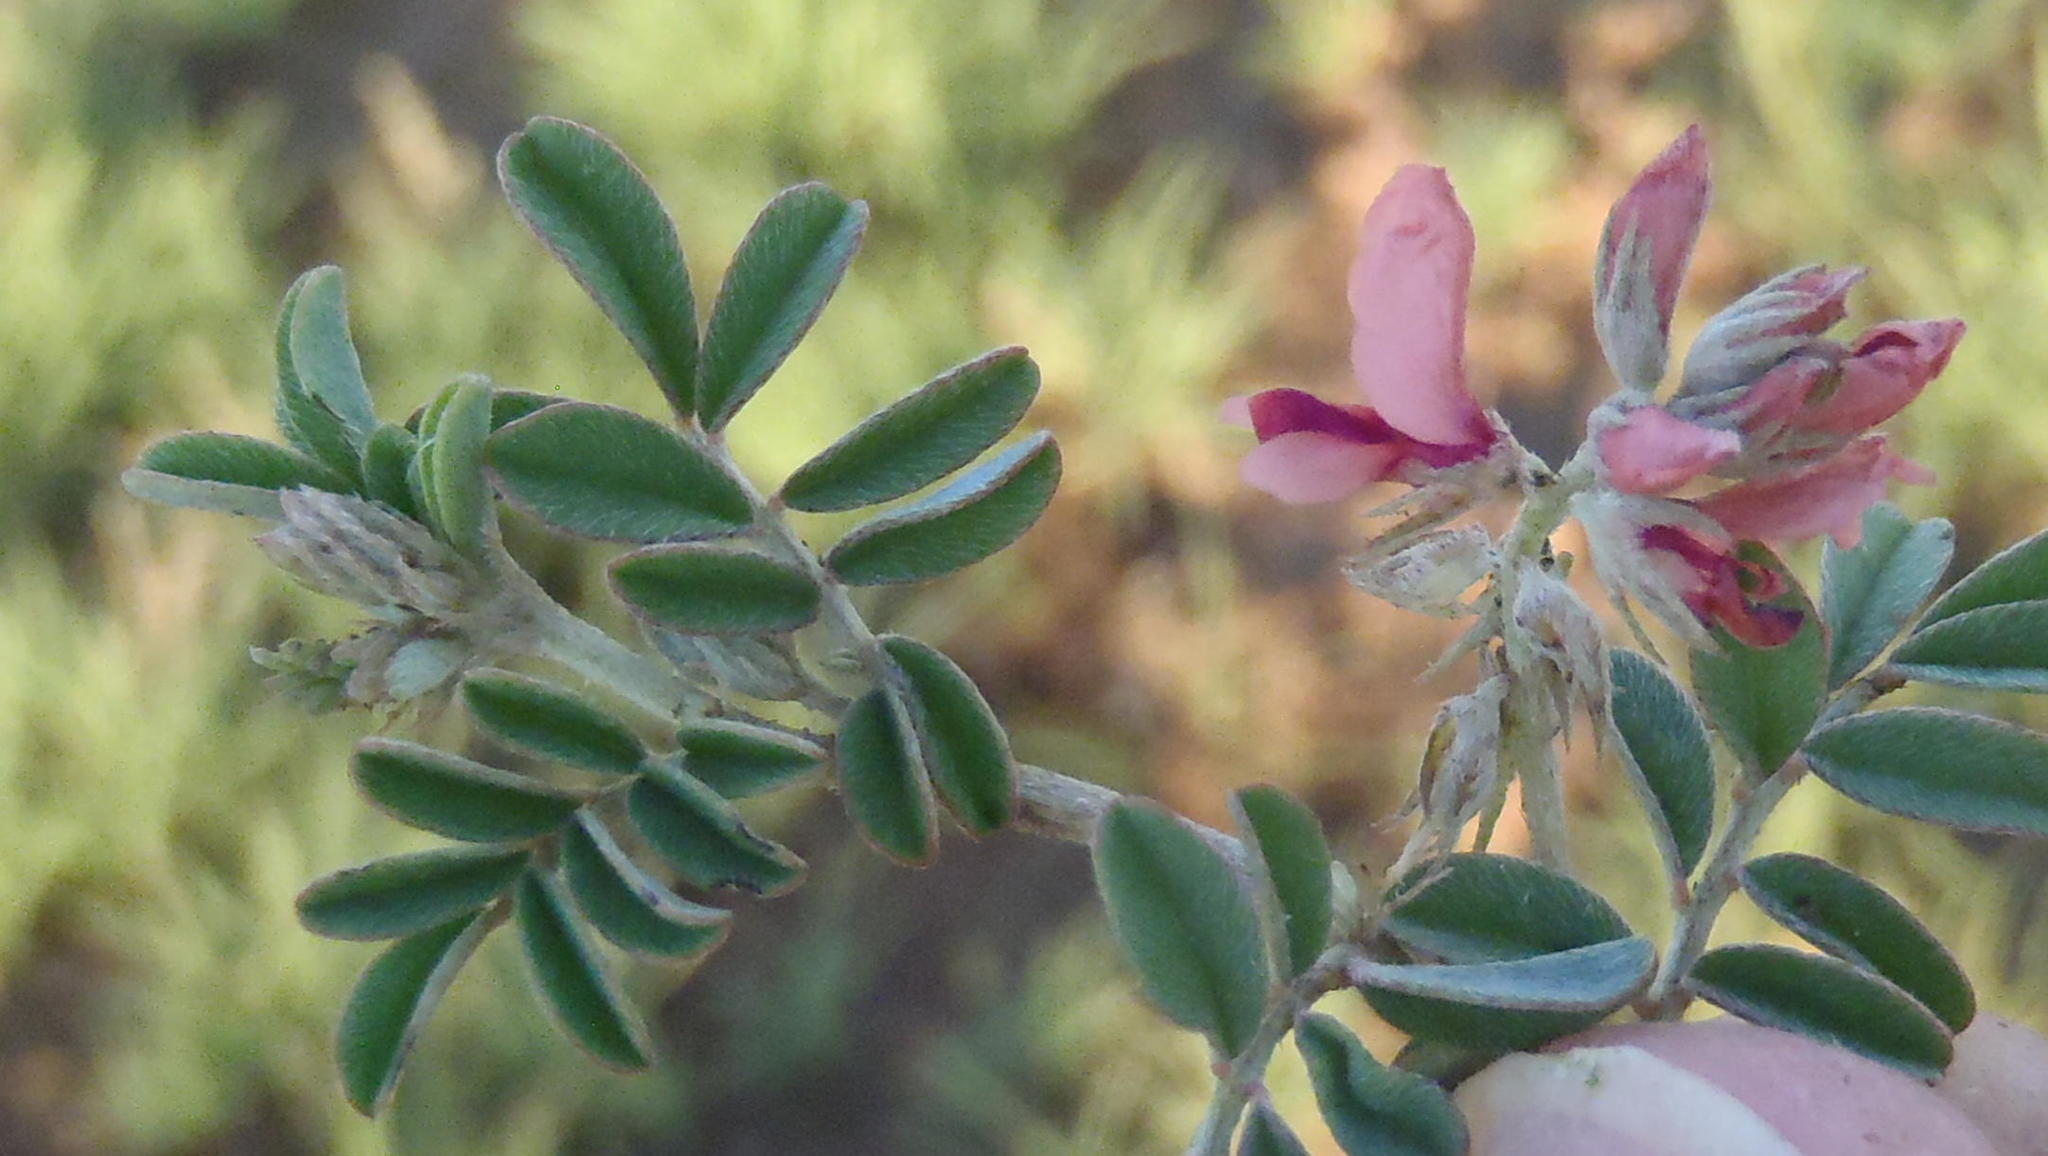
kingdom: Plantae
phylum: Tracheophyta
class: Magnoliopsida
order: Fabales
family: Fabaceae
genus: Indigofera
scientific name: Indigofera alternans
